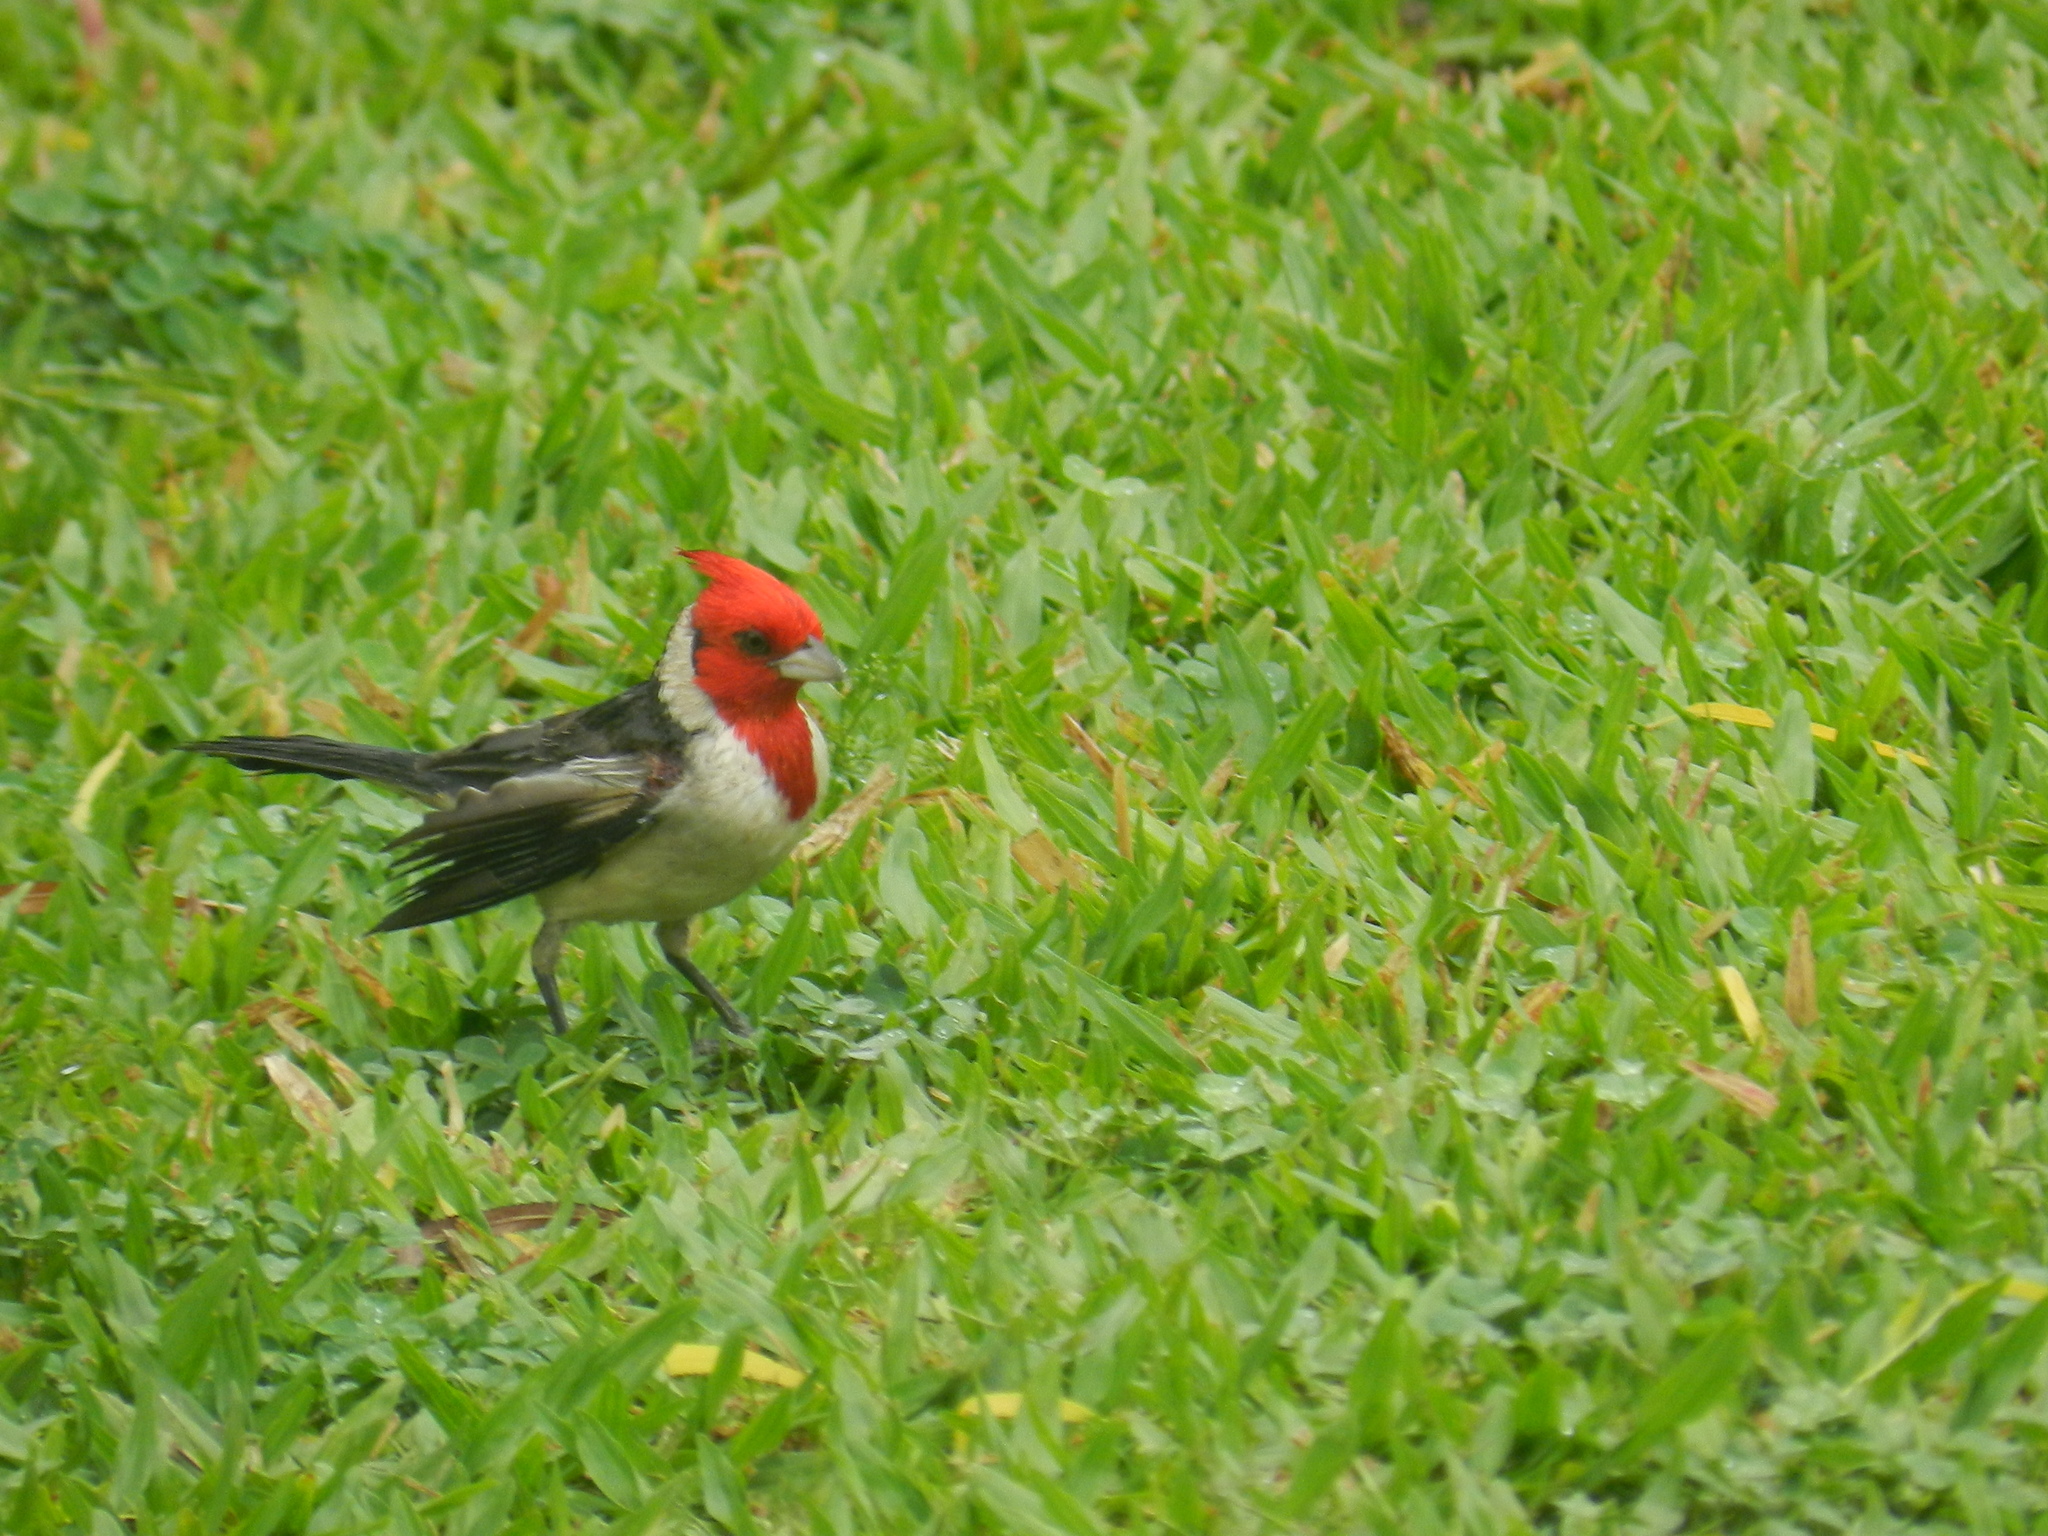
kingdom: Animalia
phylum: Chordata
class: Aves
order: Passeriformes
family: Thraupidae
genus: Paroaria
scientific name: Paroaria coronata
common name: Red-crested cardinal
